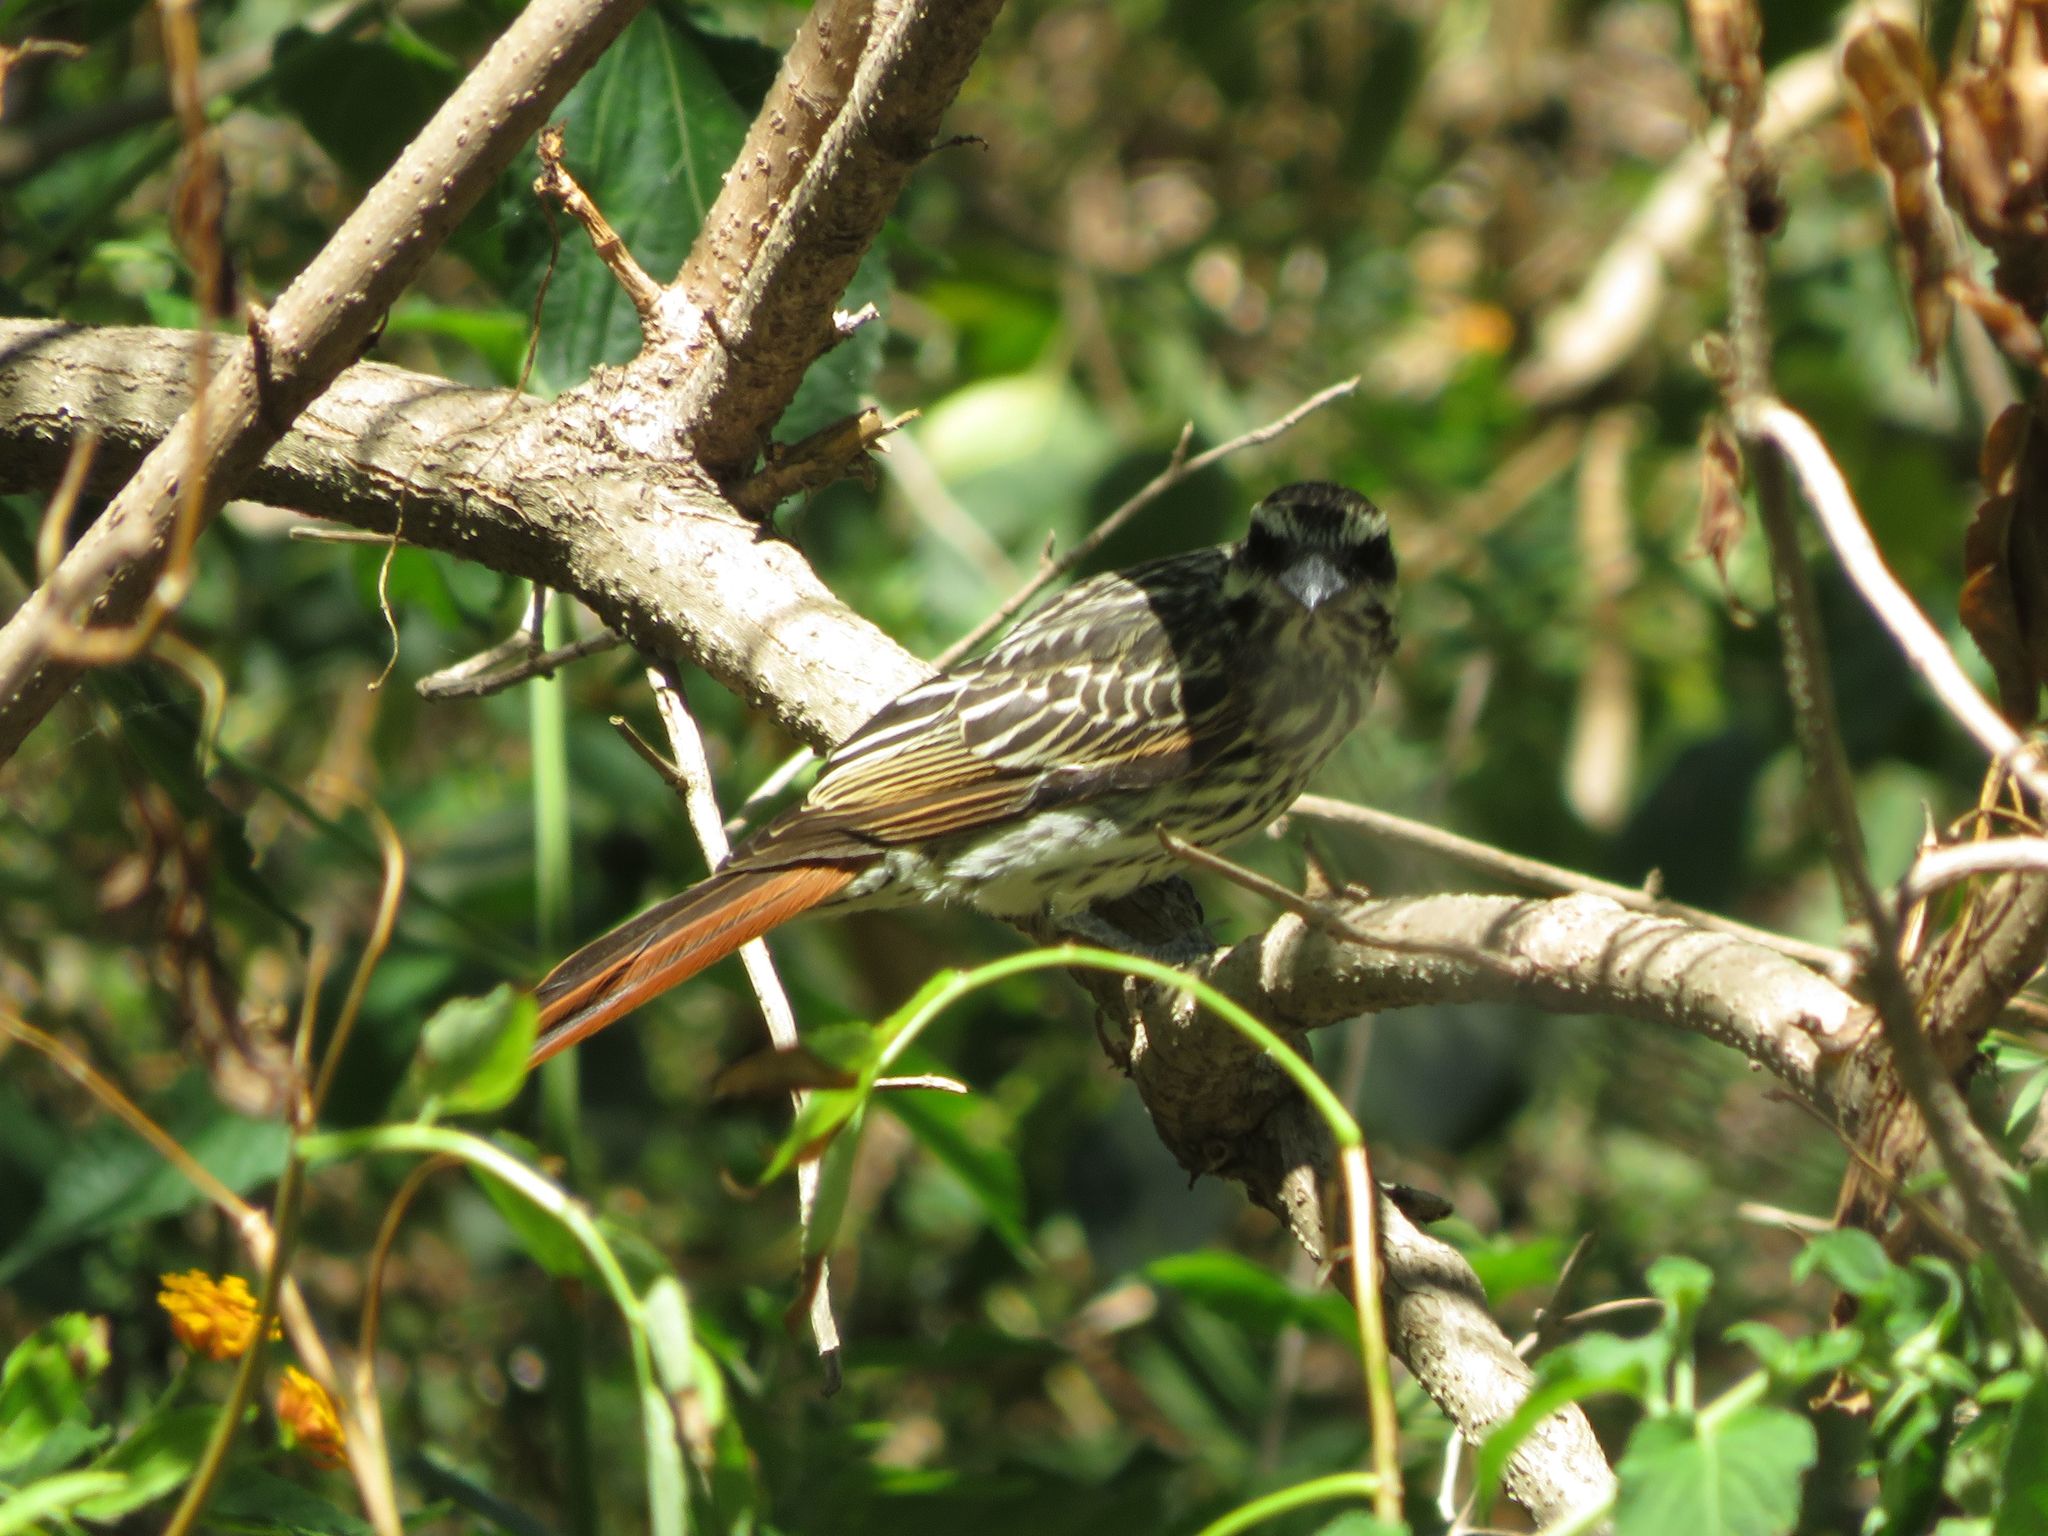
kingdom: Animalia
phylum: Chordata
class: Aves
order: Passeriformes
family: Tyrannidae
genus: Myiodynastes
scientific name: Myiodynastes maculatus
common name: Streaked flycatcher
